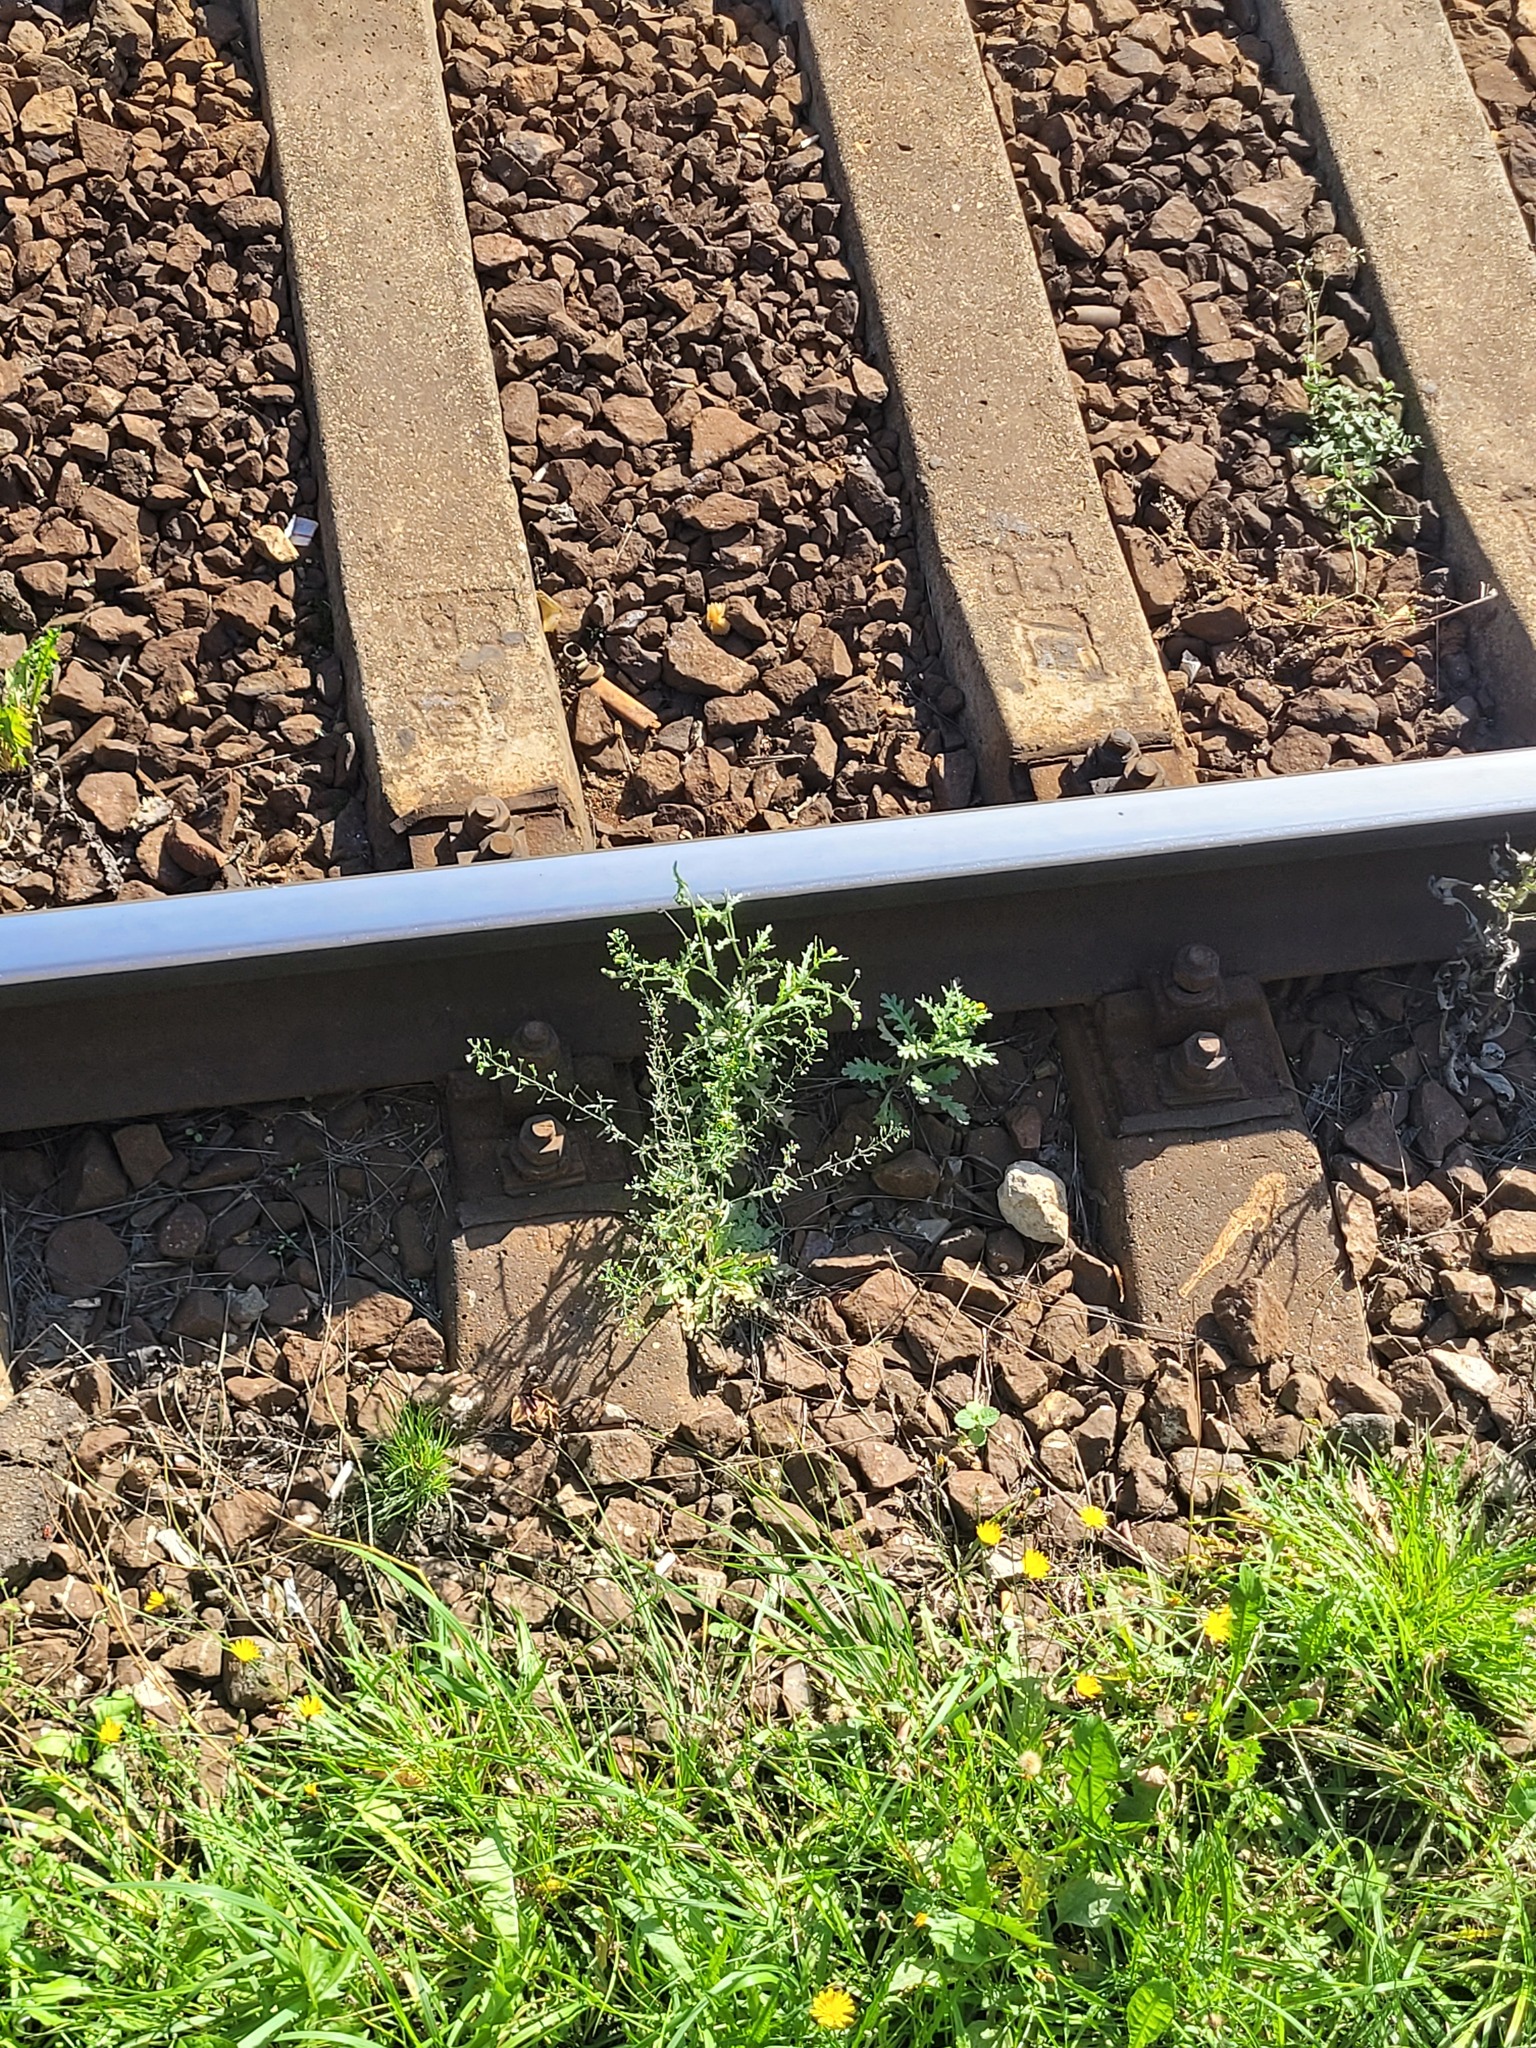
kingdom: Plantae
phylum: Tracheophyta
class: Magnoliopsida
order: Brassicales
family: Brassicaceae
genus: Capsella
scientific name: Capsella bursa-pastoris
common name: Shepherd's purse
